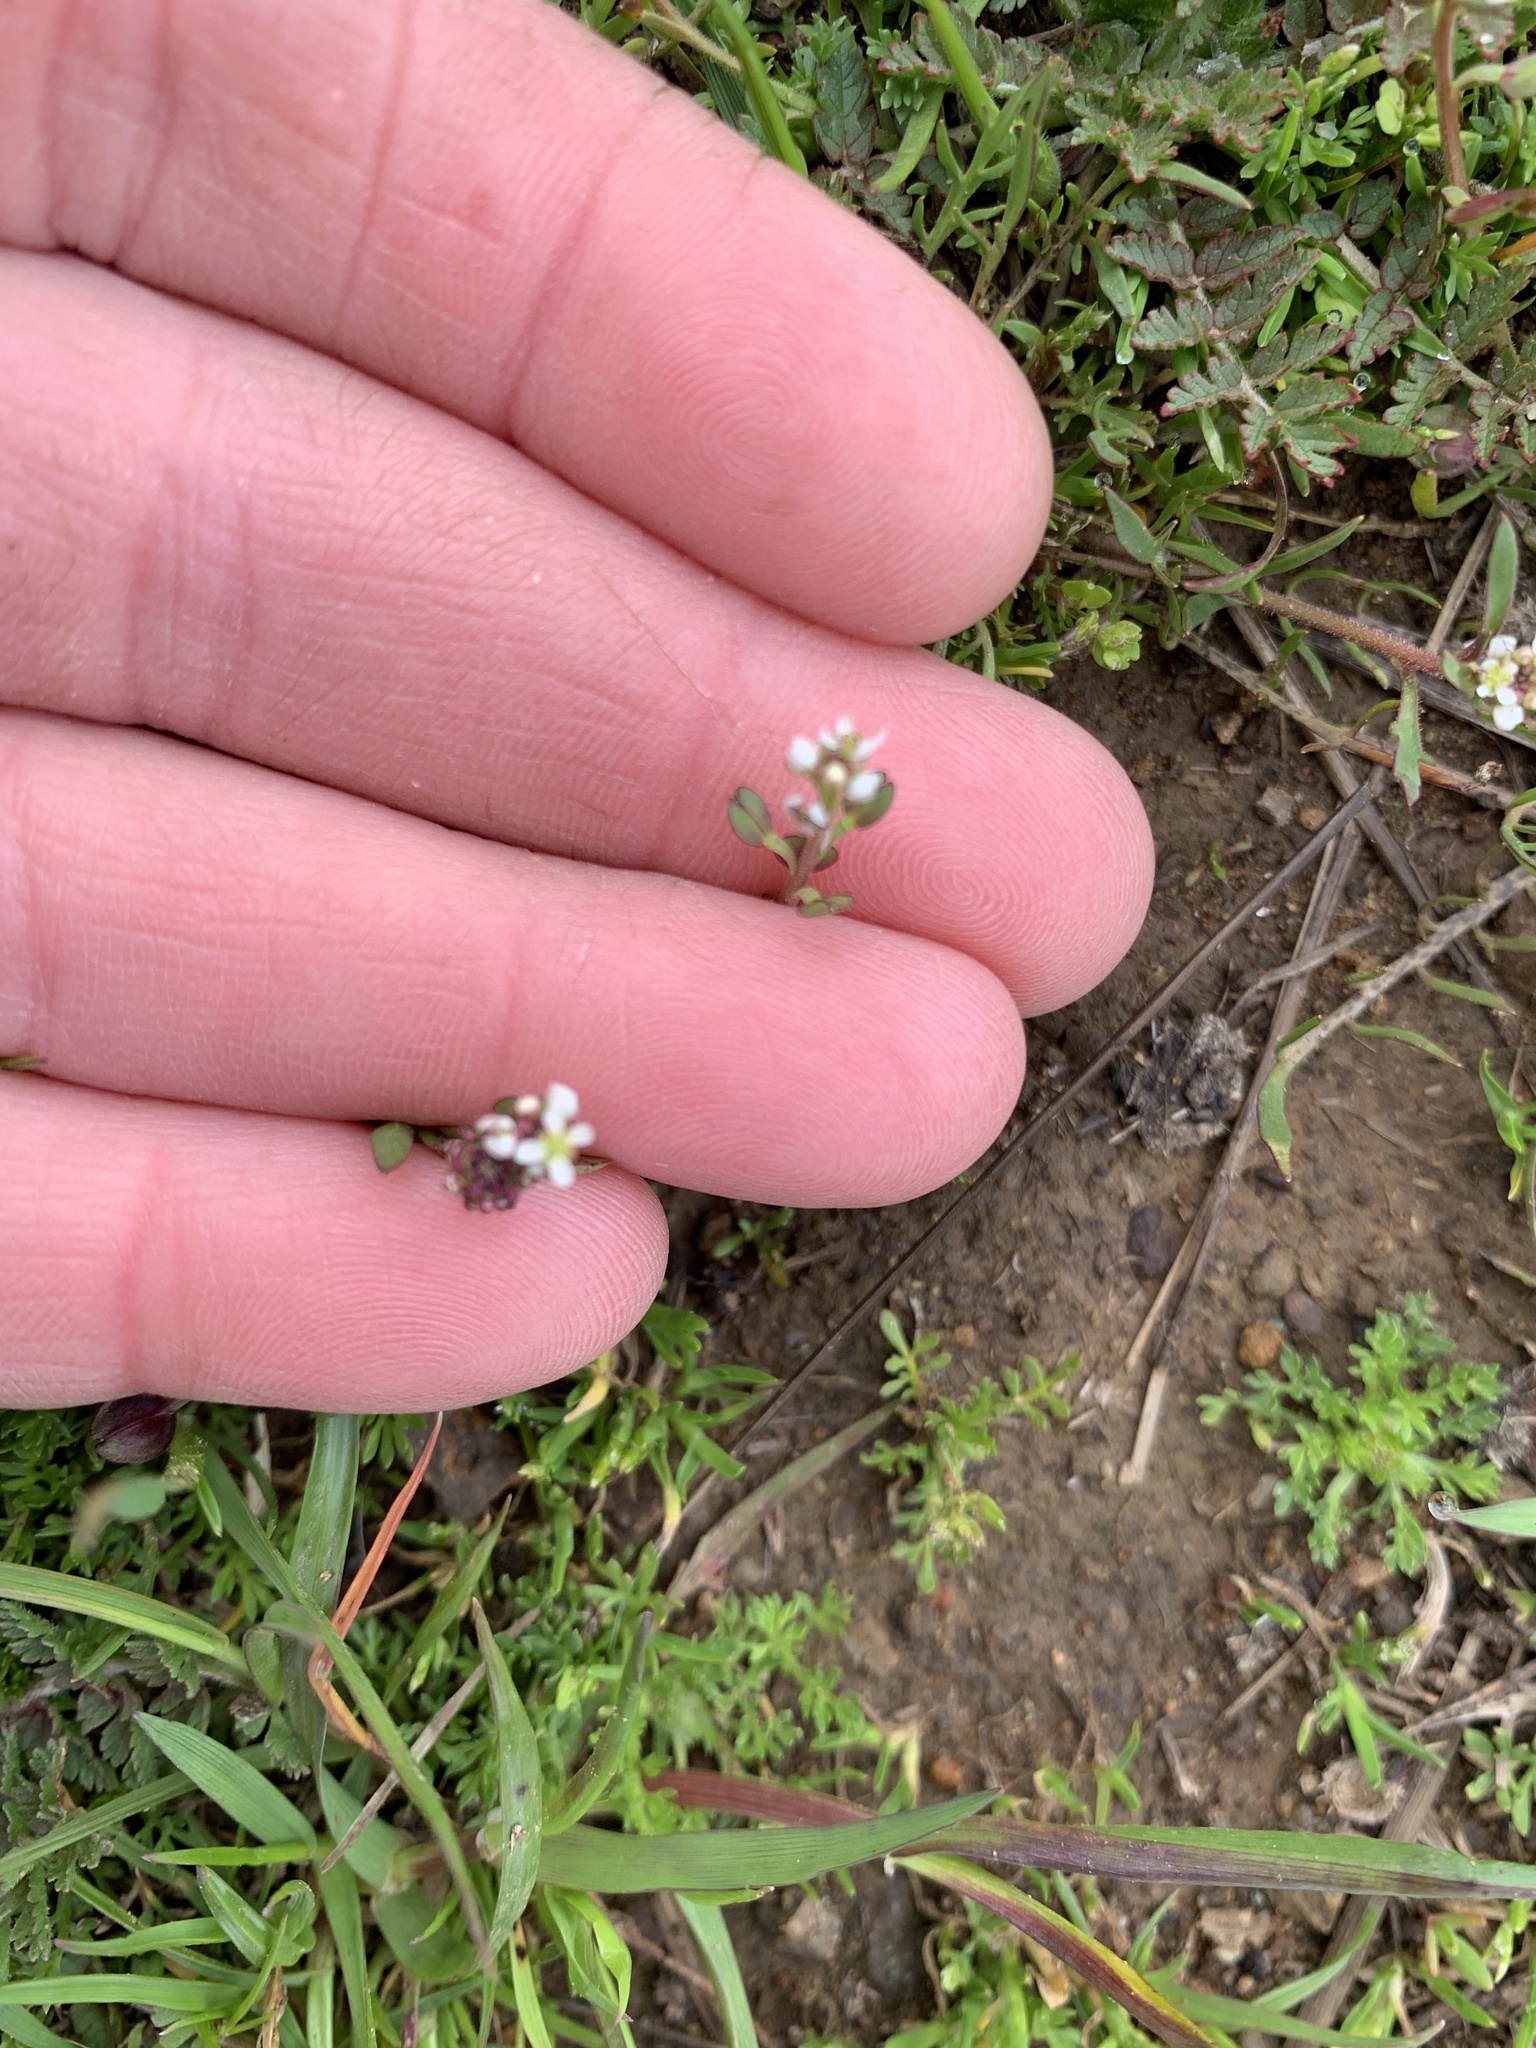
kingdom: Plantae
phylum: Tracheophyta
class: Magnoliopsida
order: Brassicales
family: Brassicaceae
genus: Lepidium
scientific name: Lepidium nitidum
